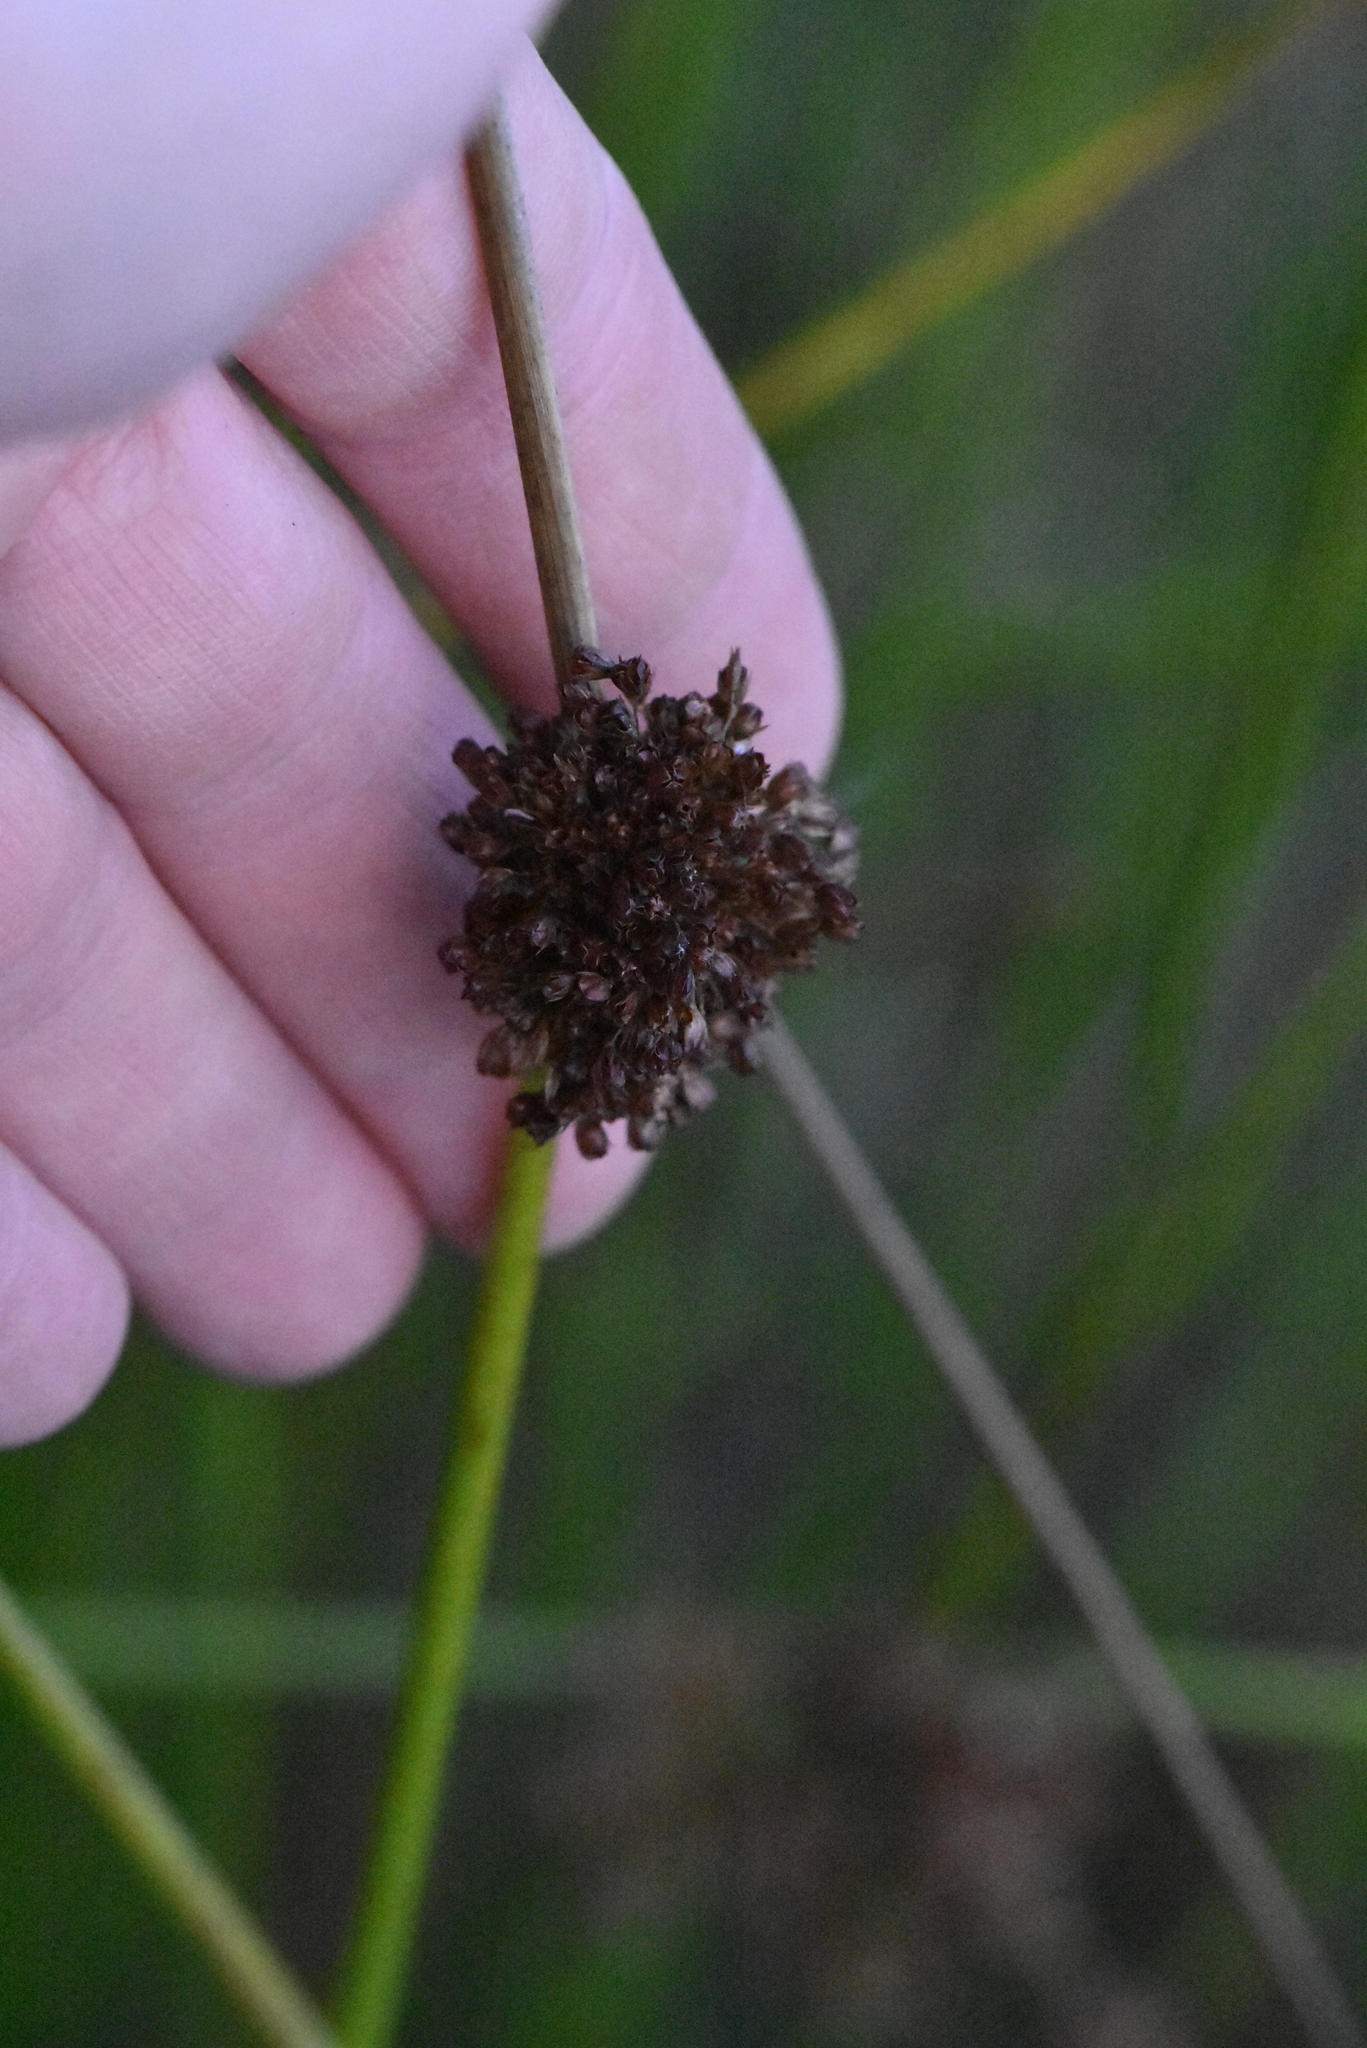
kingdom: Plantae
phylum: Tracheophyta
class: Liliopsida
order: Poales
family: Juncaceae
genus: Juncus
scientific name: Juncus effusus
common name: Soft rush
